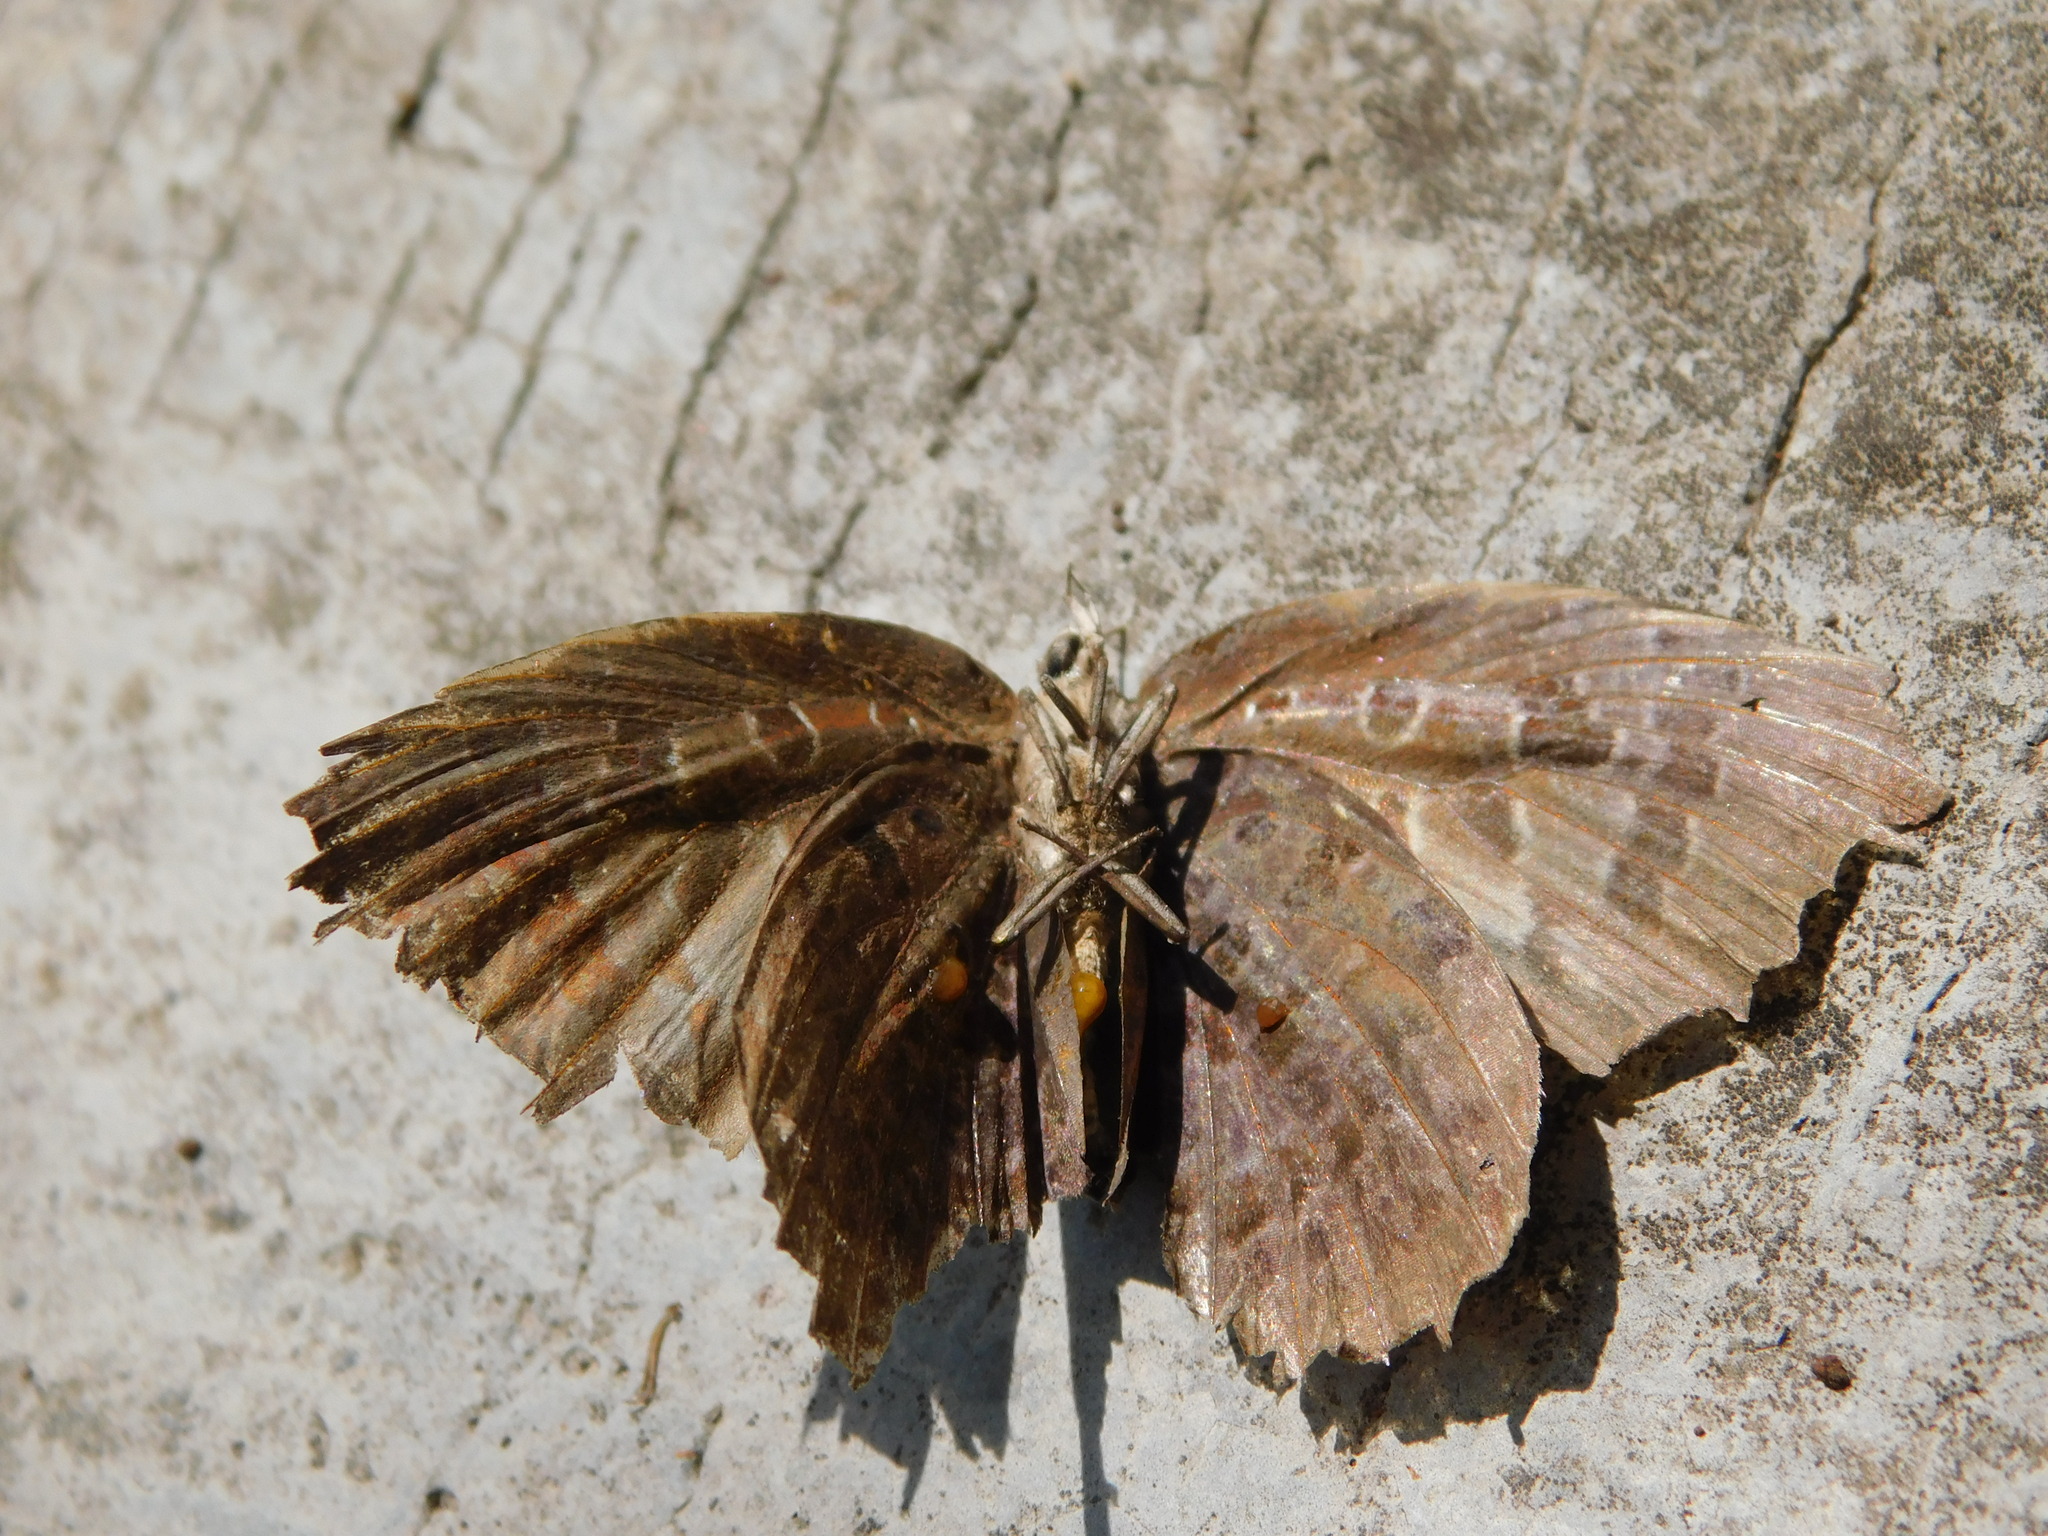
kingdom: Animalia
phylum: Arthropoda
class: Insecta
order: Lepidoptera
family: Lycaenidae
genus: Arhopala
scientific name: Arhopala centaurus
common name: Dull oak-blue
